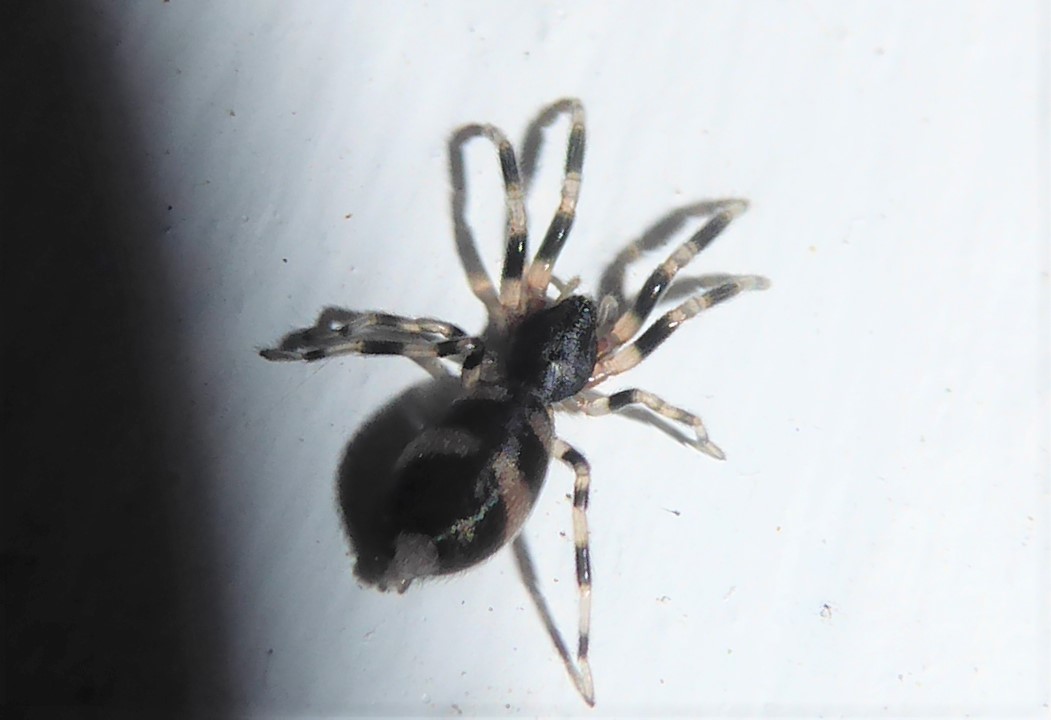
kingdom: Animalia
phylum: Arthropoda
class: Arachnida
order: Araneae
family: Lamponidae
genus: Lampona
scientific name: Lampona cylindrata
